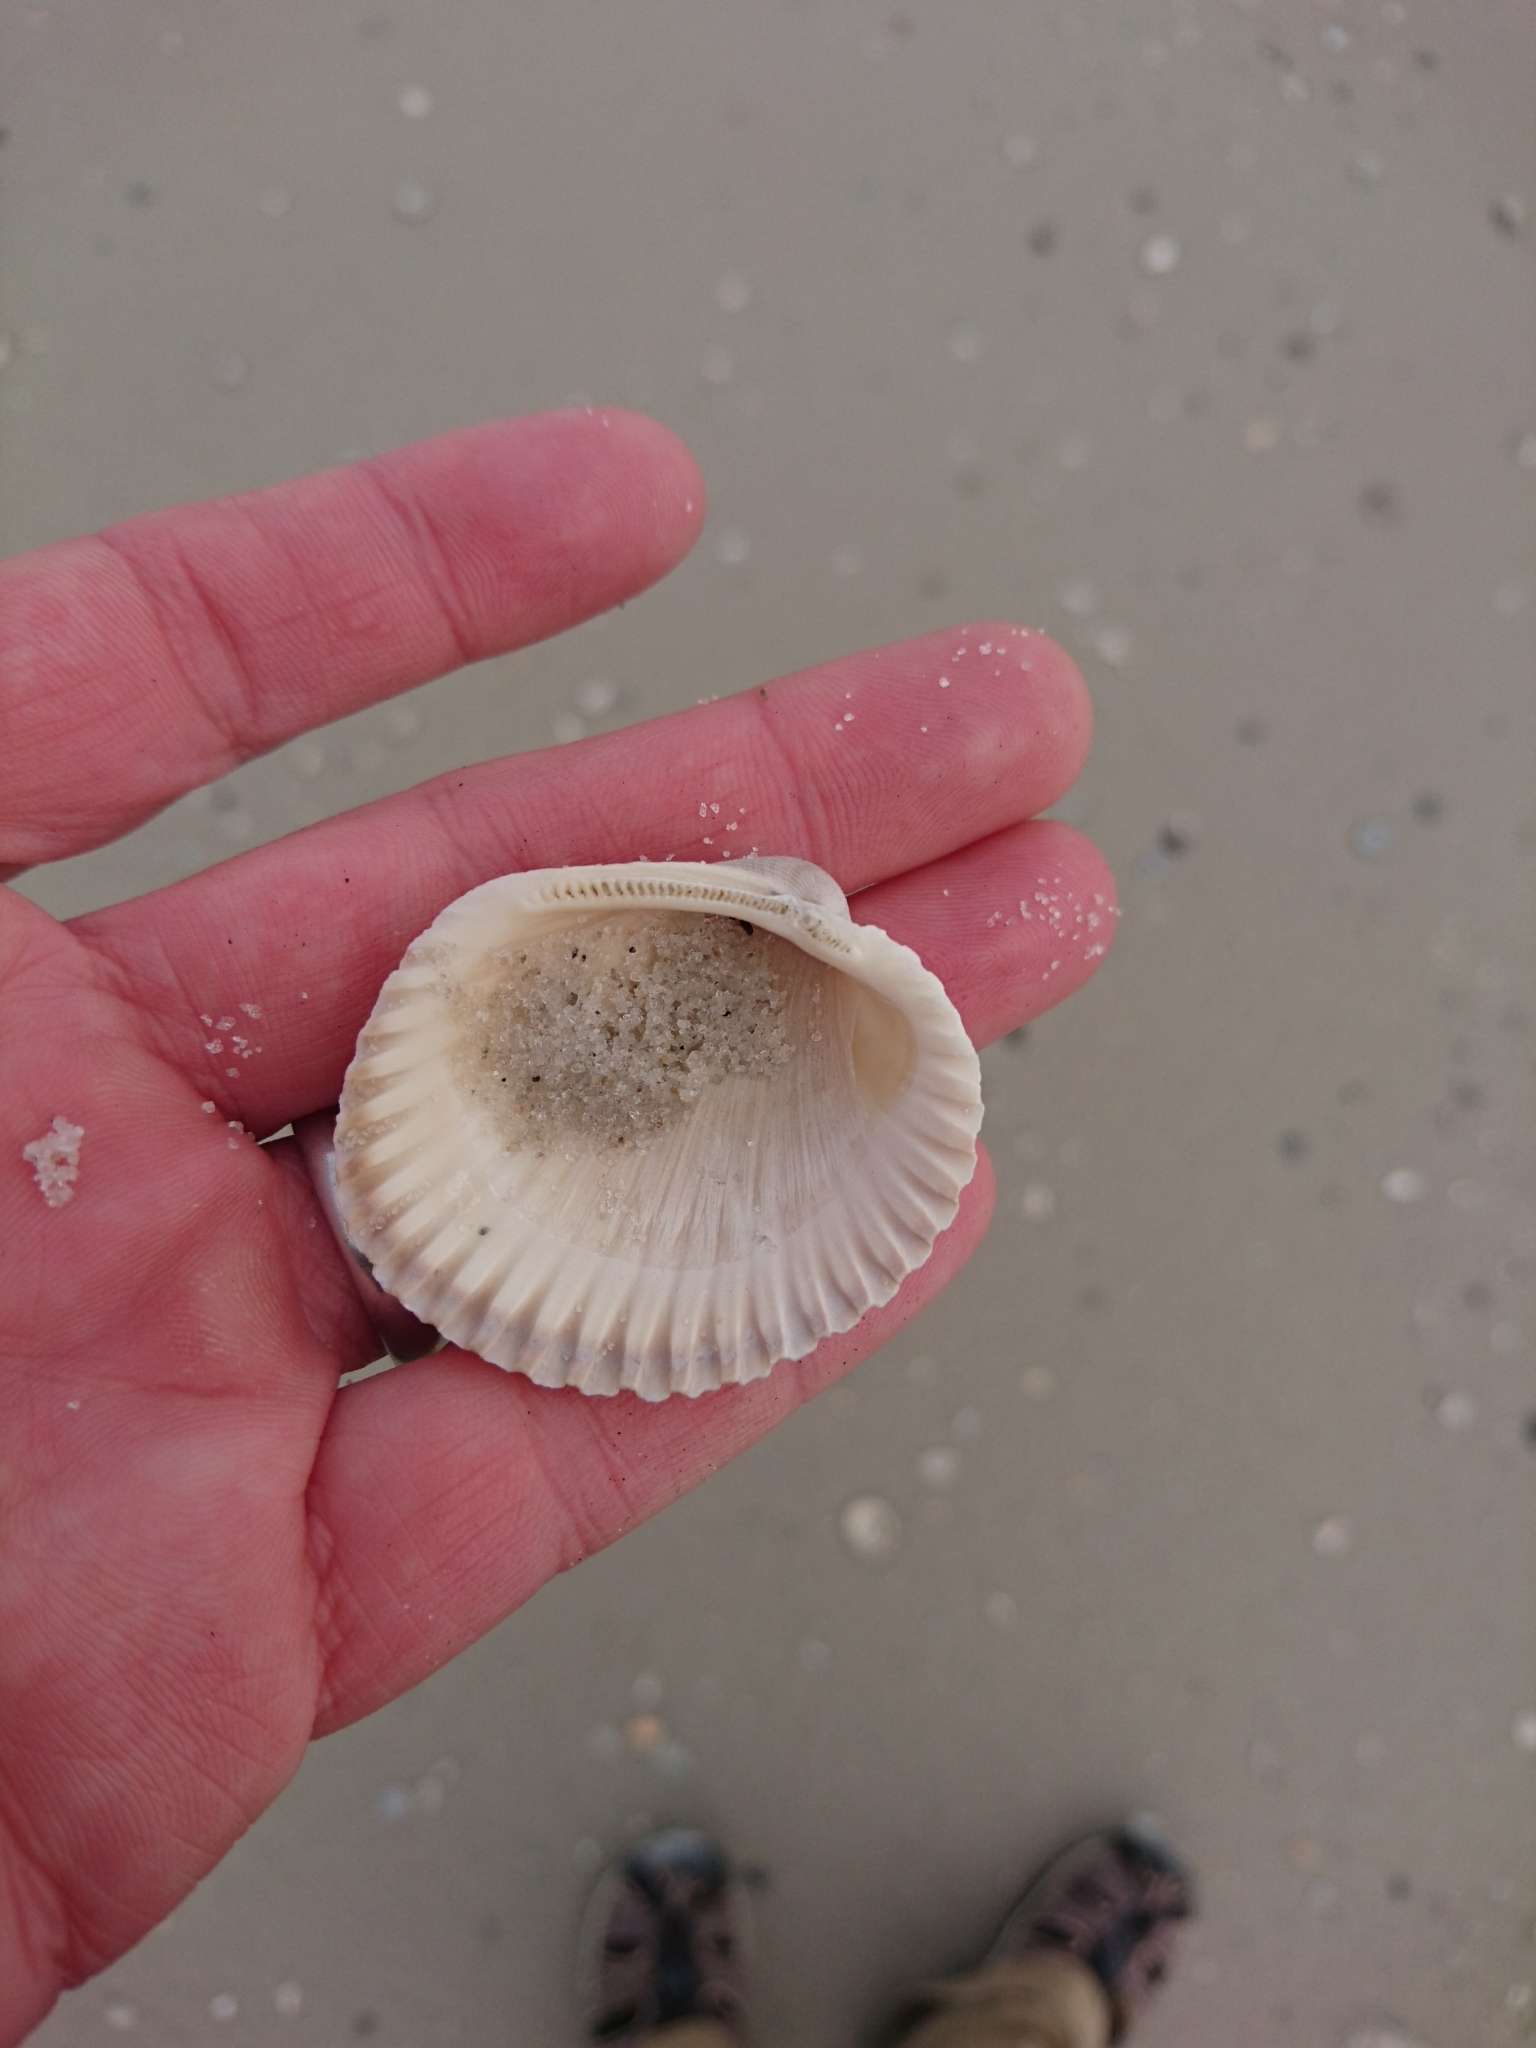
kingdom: Animalia
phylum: Mollusca
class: Bivalvia
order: Arcida
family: Arcidae
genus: Lunarca
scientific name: Lunarca ovalis
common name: Blood ark
